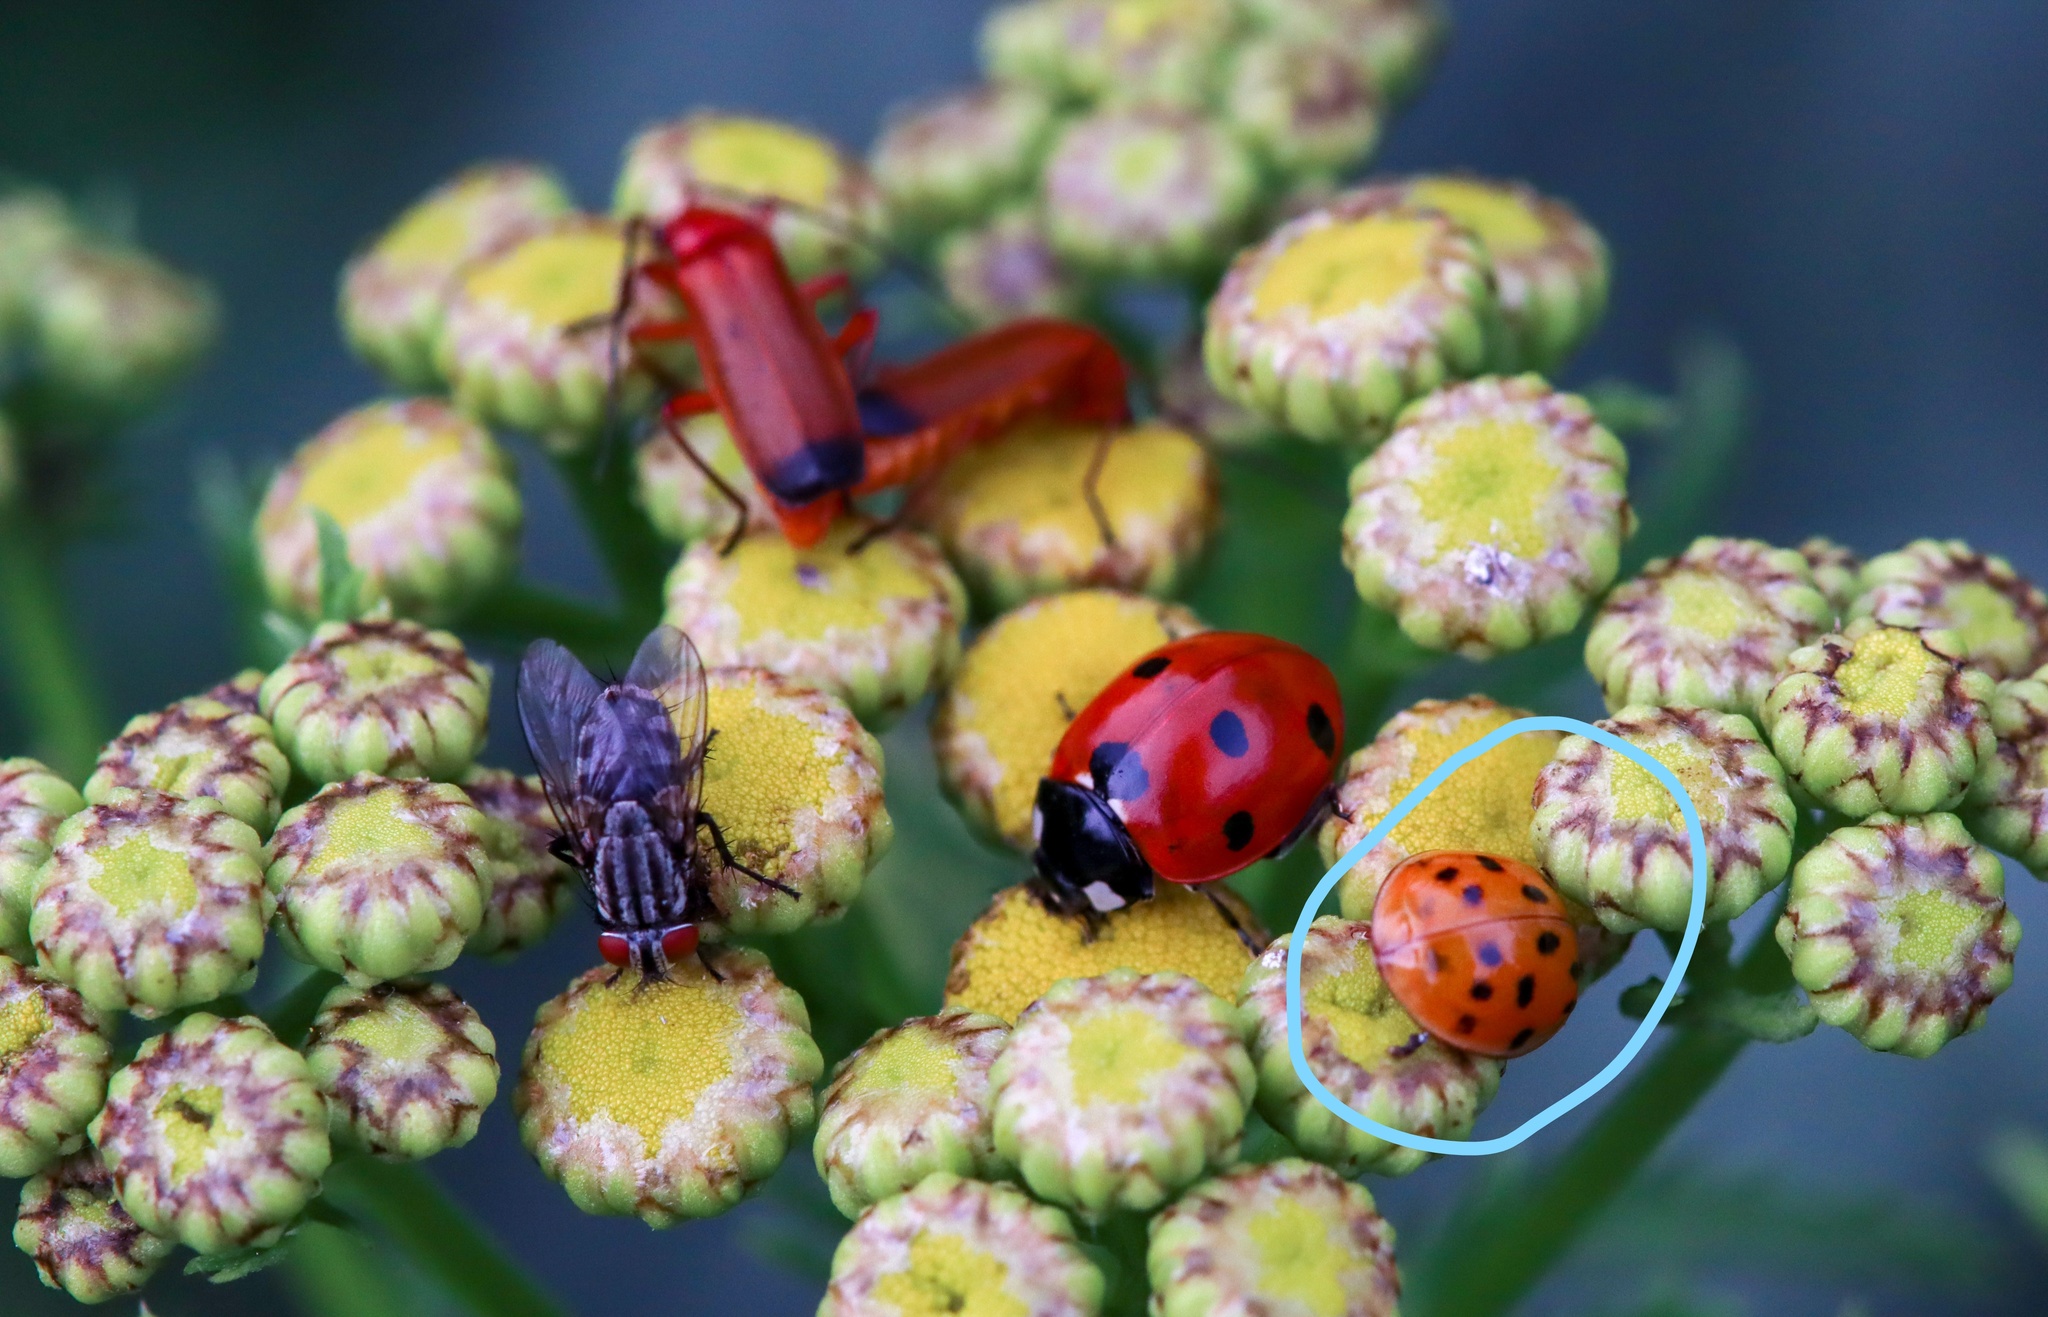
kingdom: Animalia
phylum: Arthropoda
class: Insecta
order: Coleoptera
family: Coccinellidae
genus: Harmonia
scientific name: Harmonia axyridis
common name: Harlequin ladybird
